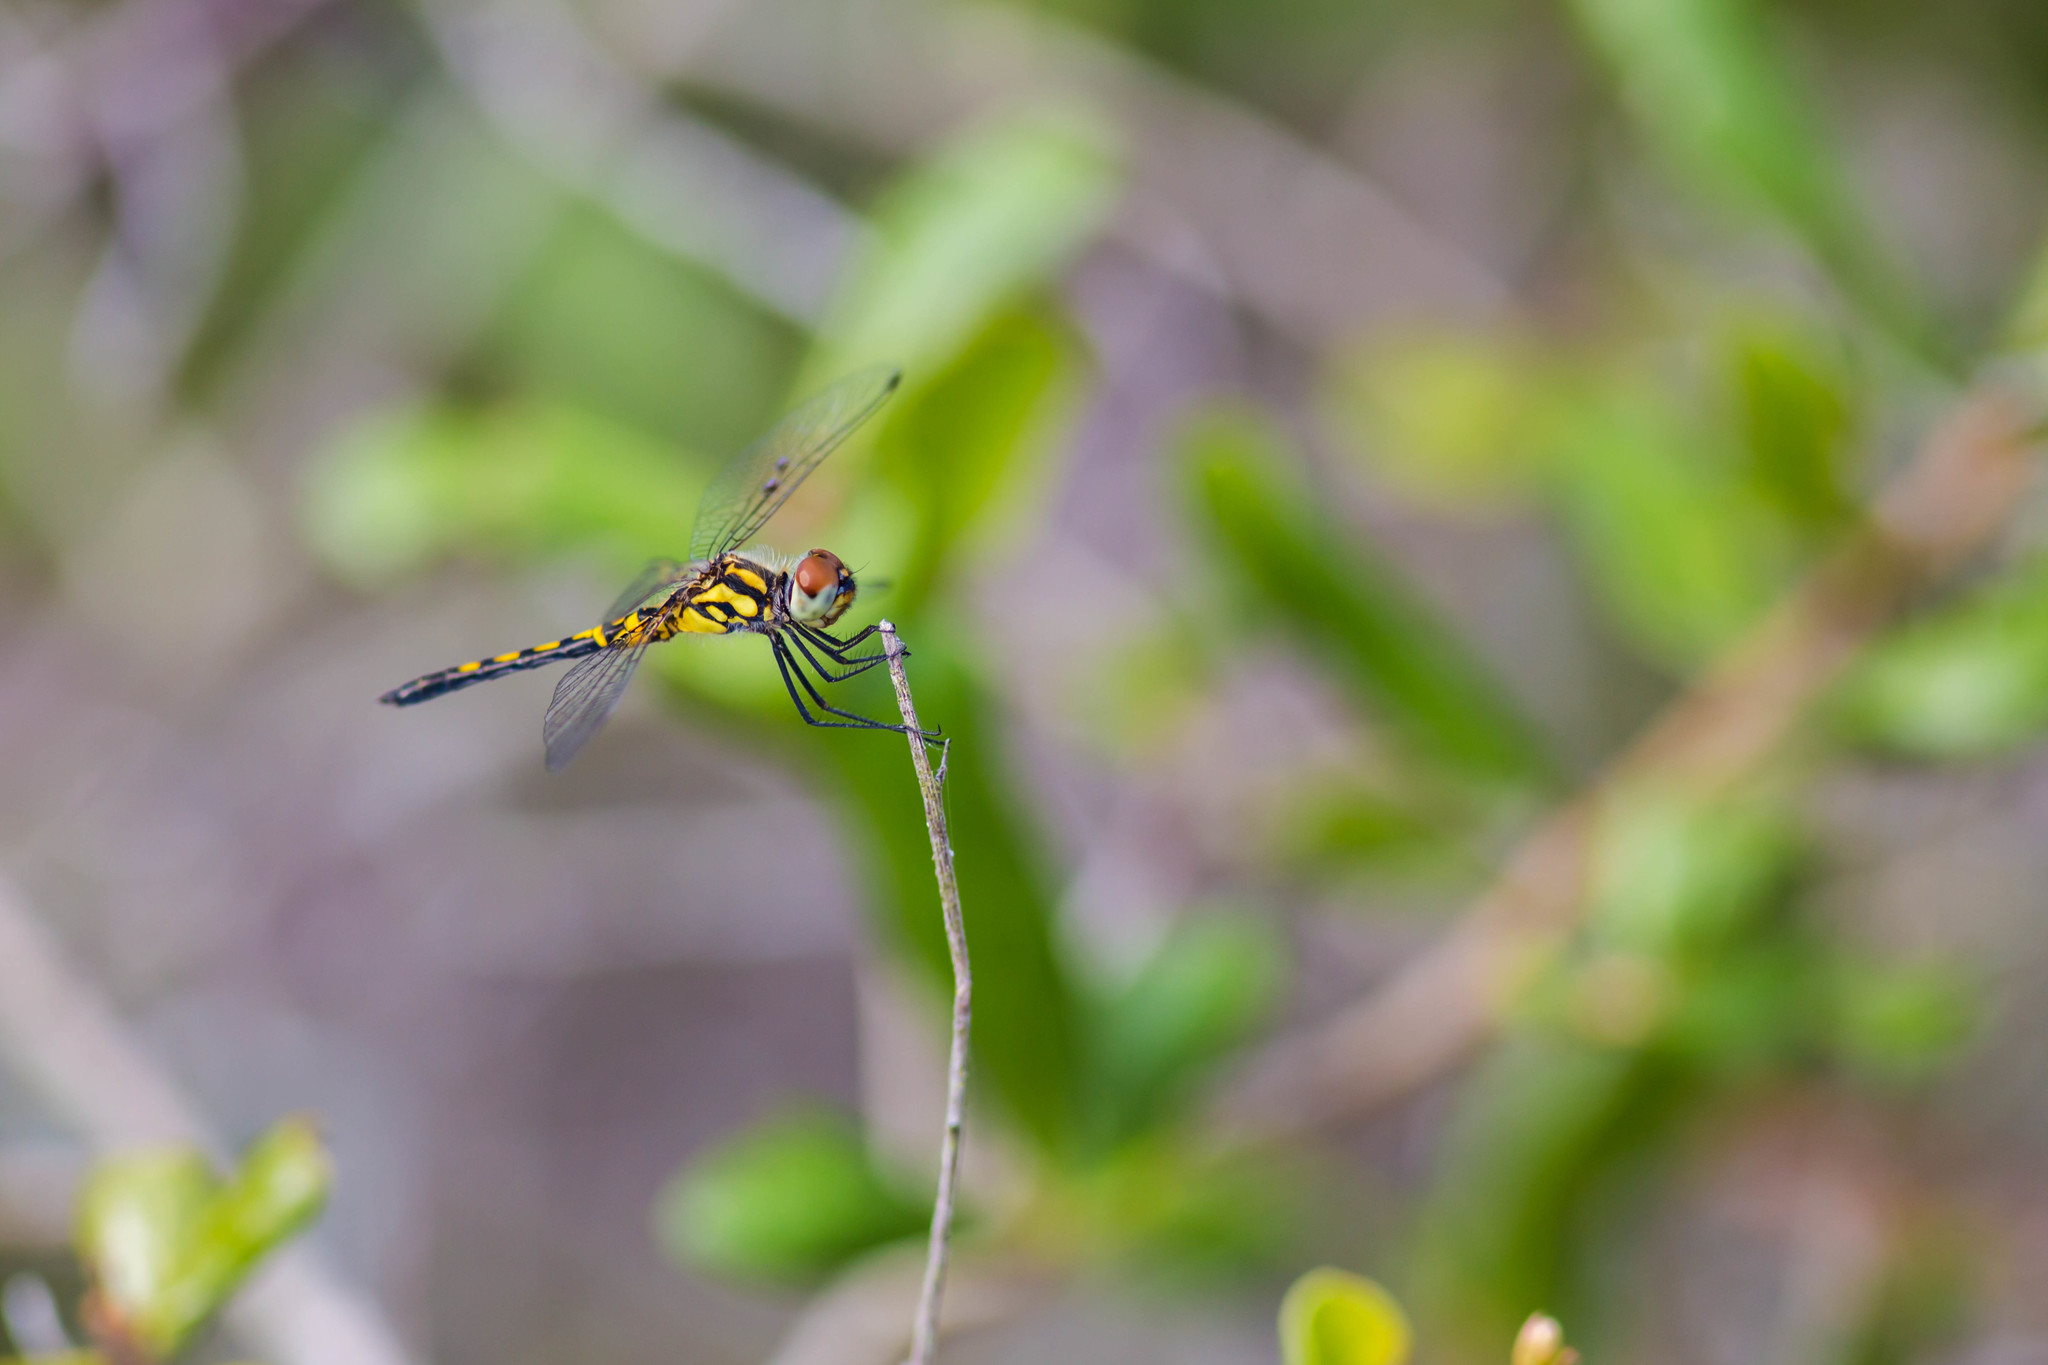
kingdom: Animalia
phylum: Arthropoda
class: Insecta
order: Odonata
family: Libellulidae
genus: Celithemis
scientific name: Celithemis ornata
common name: Ornate pennant
